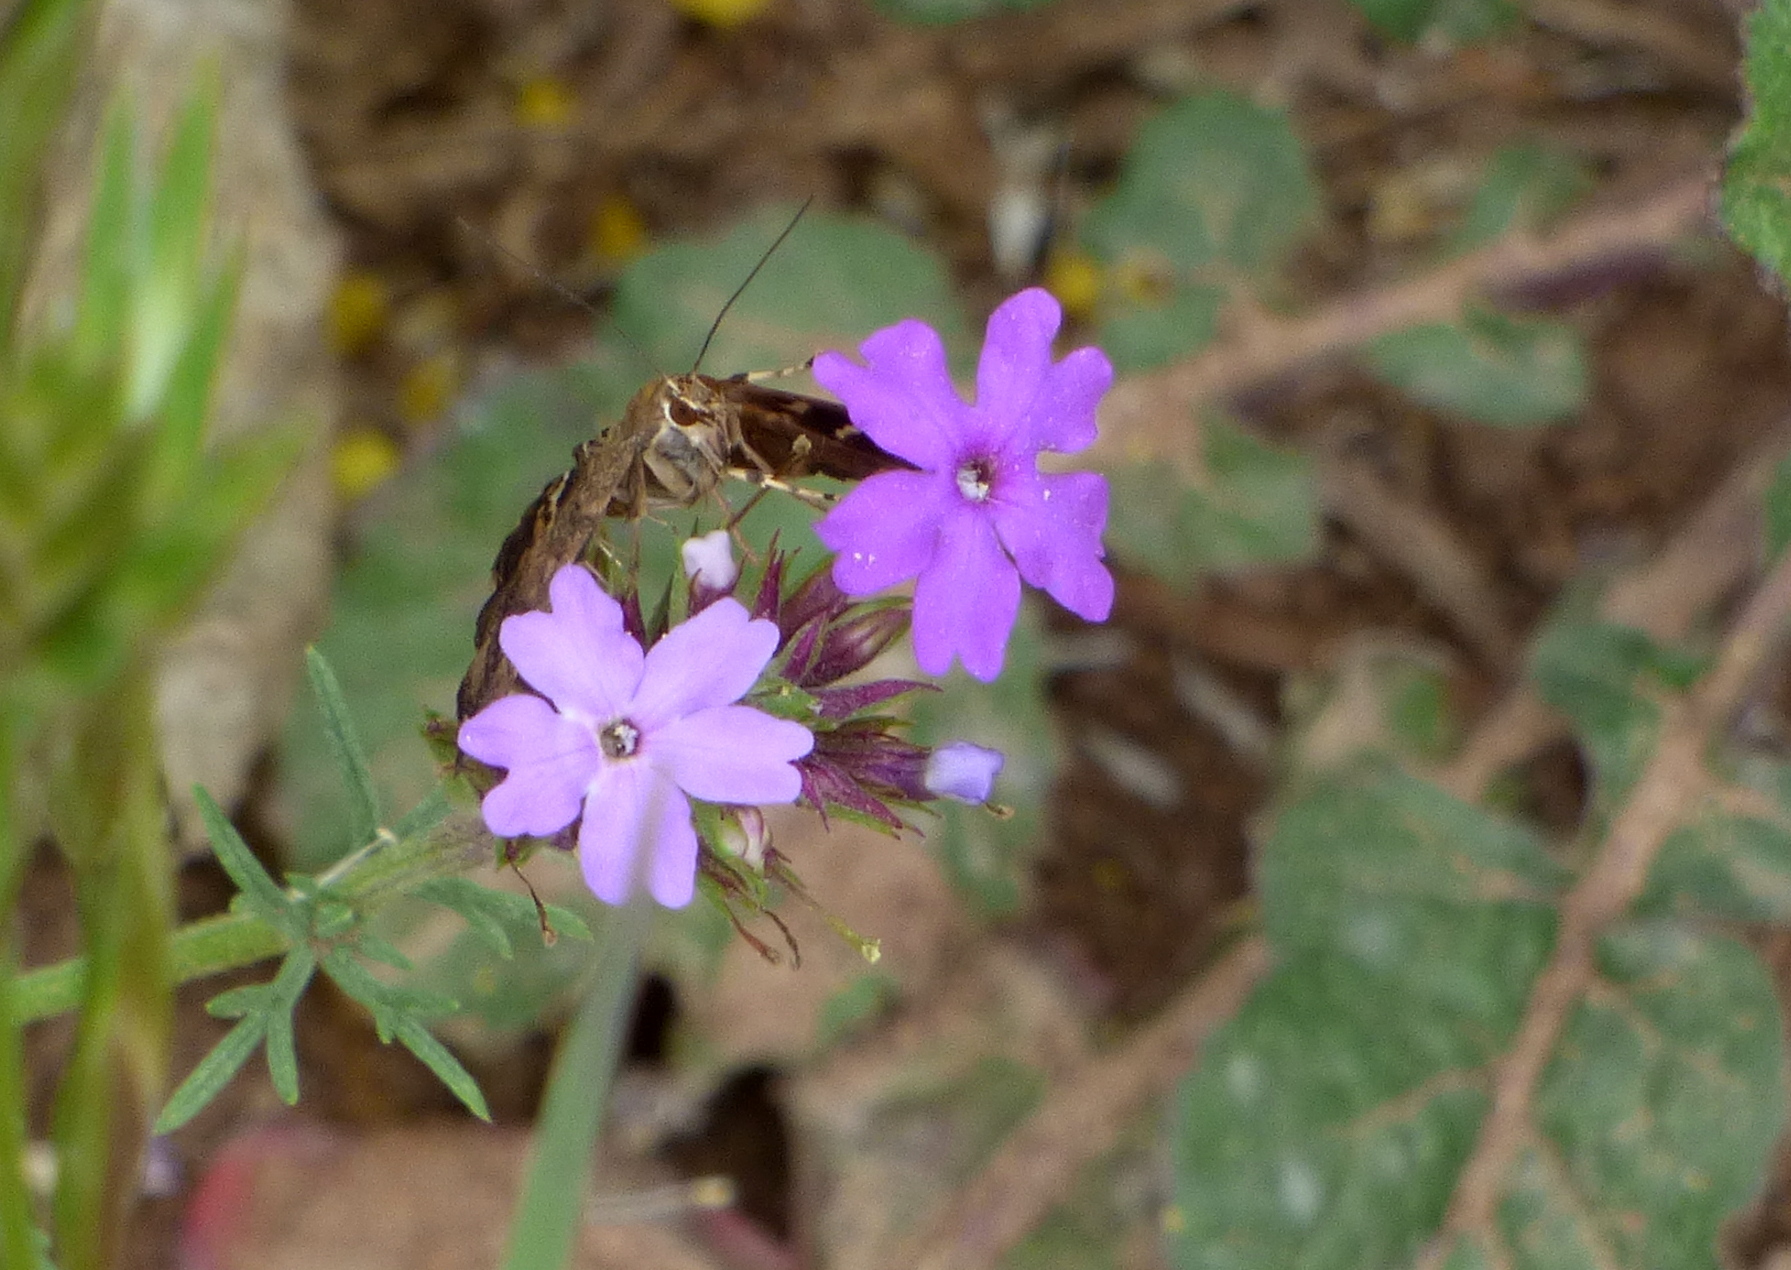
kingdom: Animalia
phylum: Arthropoda
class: Insecta
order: Lepidoptera
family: Crambidae
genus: Hymenia
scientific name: Hymenia perspectalis
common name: Spotted beet webworm
